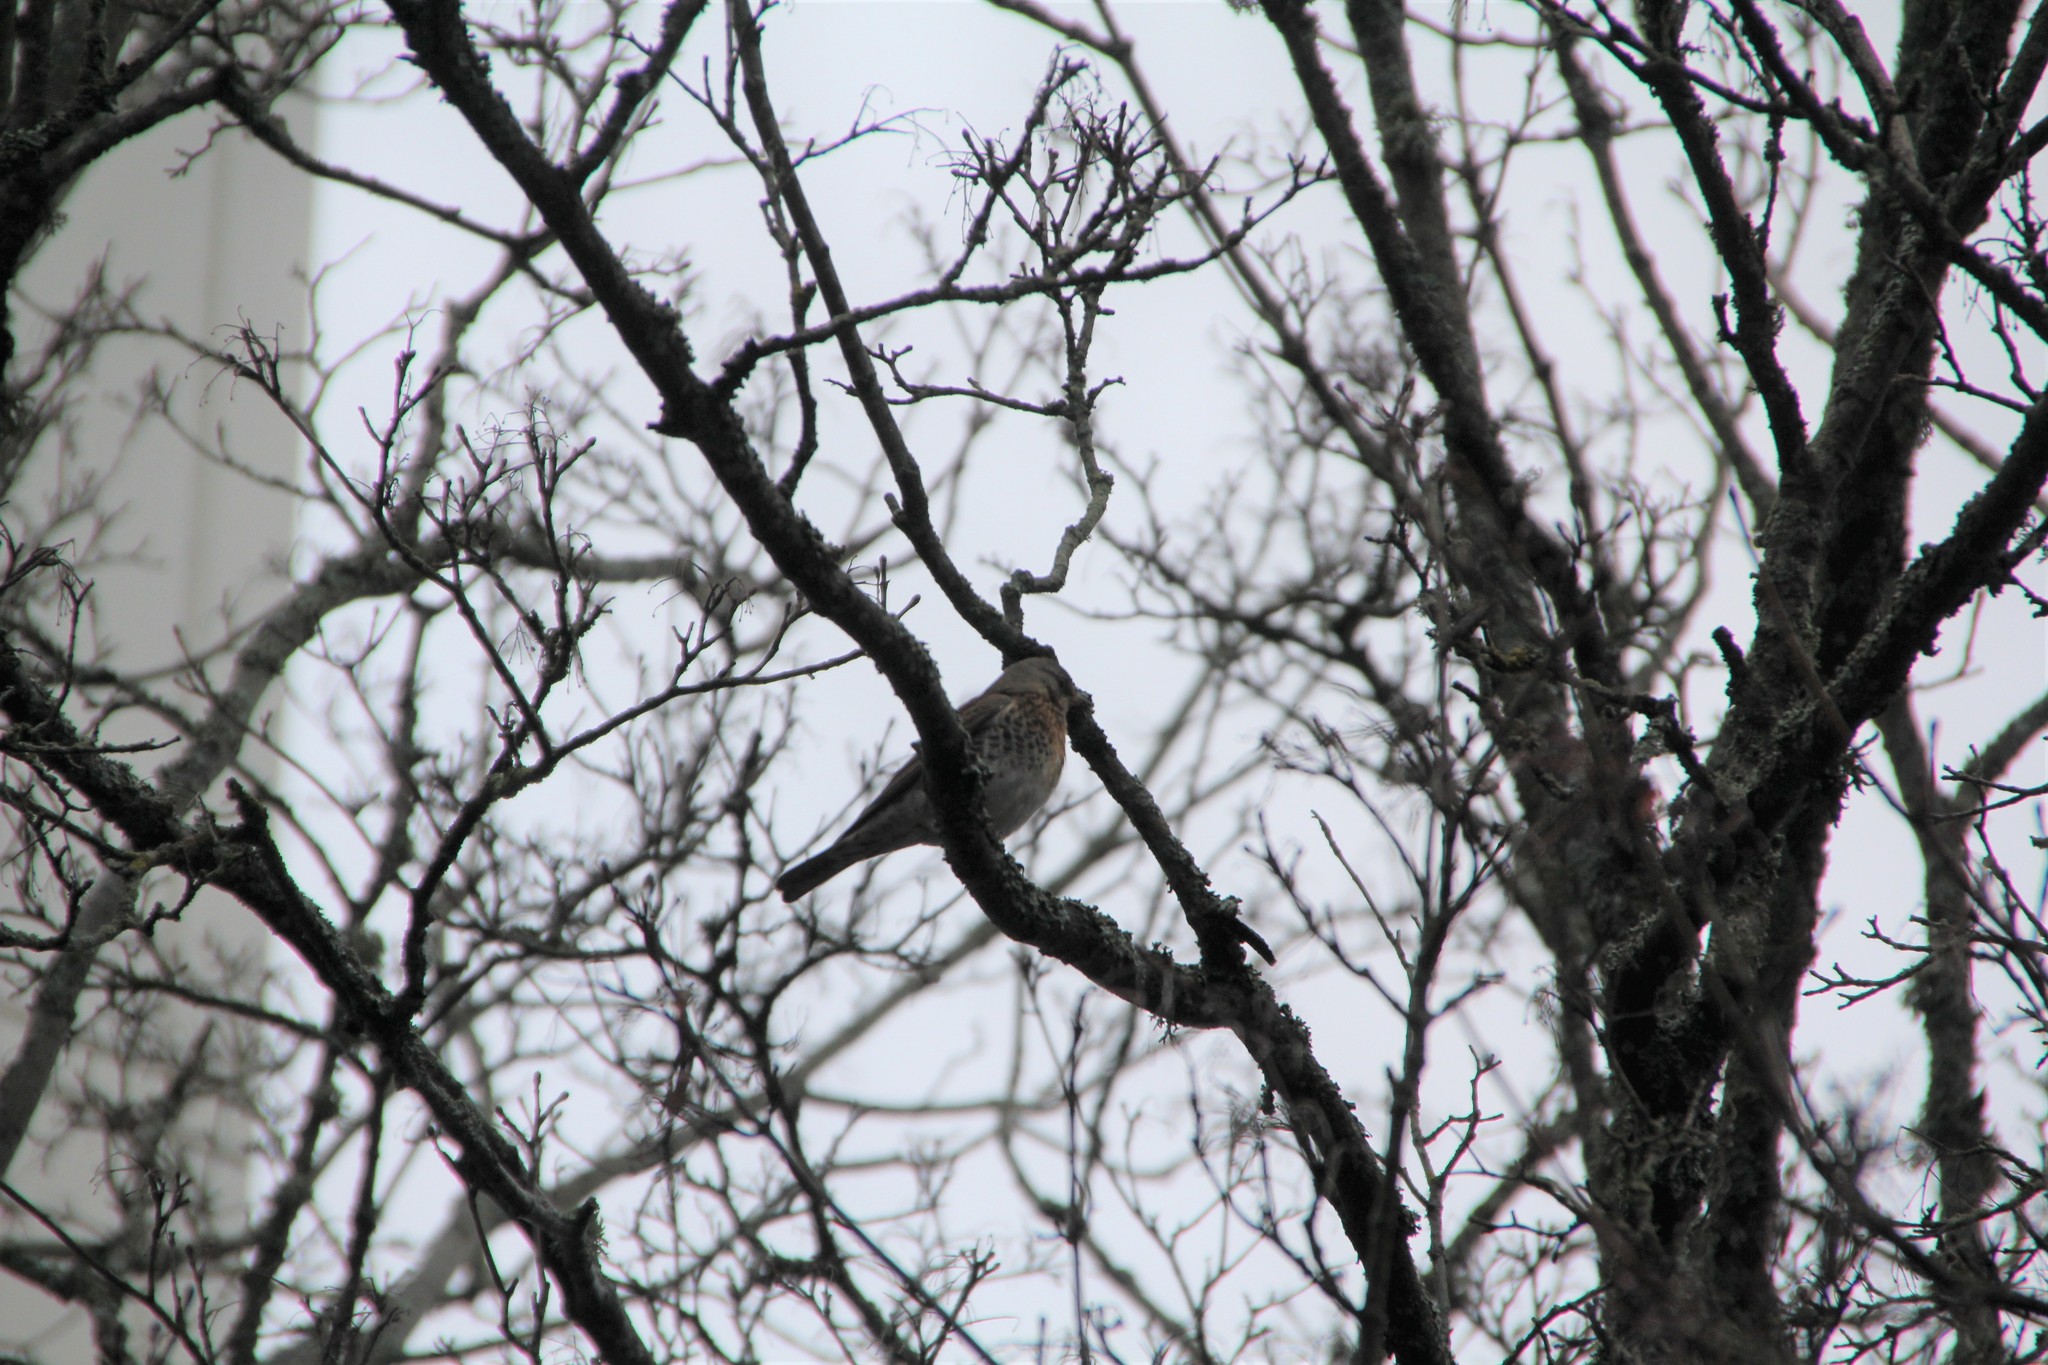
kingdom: Animalia
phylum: Chordata
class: Aves
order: Passeriformes
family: Turdidae
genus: Turdus
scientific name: Turdus pilaris
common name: Fieldfare
